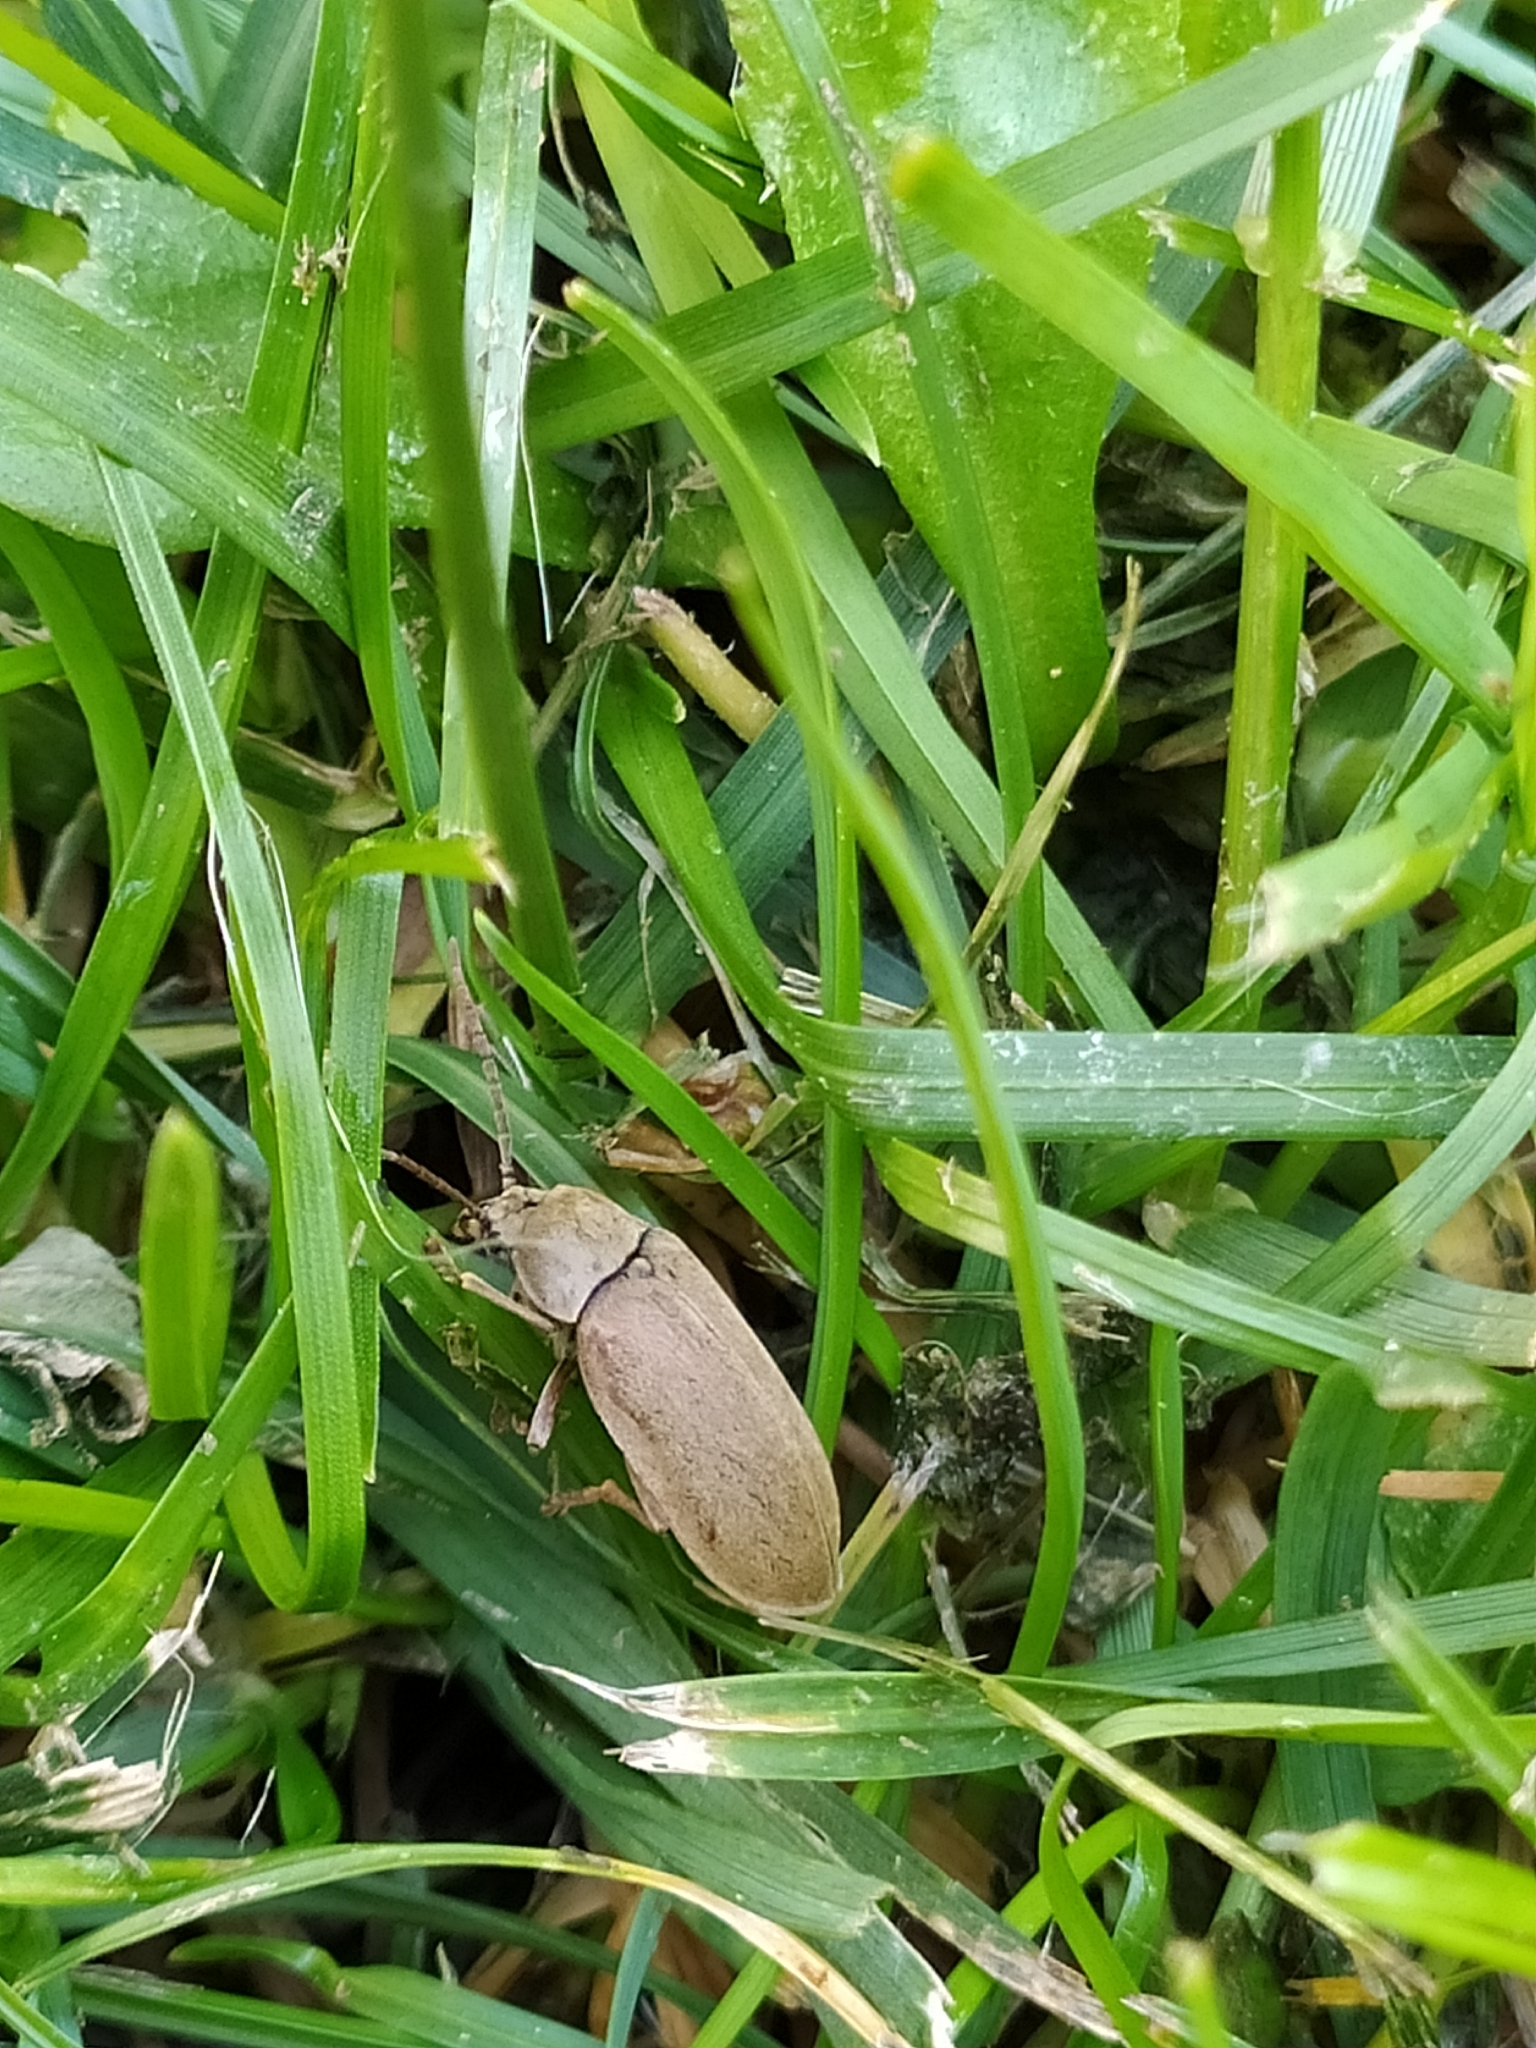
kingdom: Animalia
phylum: Arthropoda
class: Insecta
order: Coleoptera
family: Dascillidae
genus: Dascillus
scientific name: Dascillus cervinus
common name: Orchid beetle
